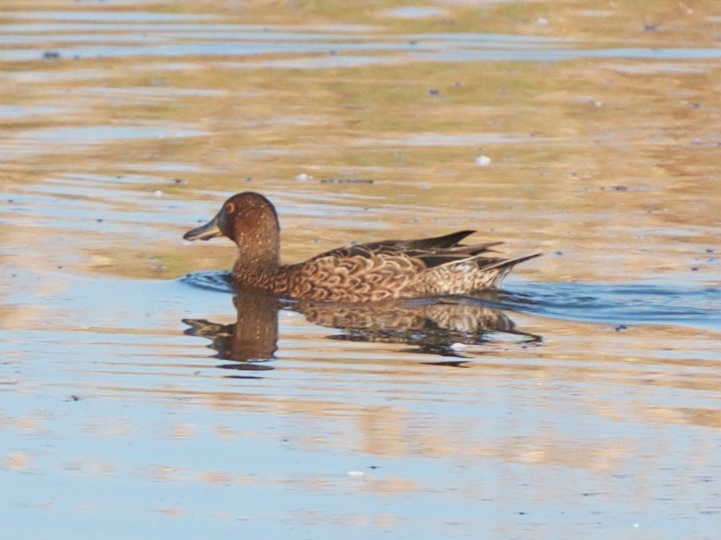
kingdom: Animalia
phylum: Chordata
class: Aves
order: Anseriformes
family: Anatidae
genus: Spatula
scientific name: Spatula cyanoptera
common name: Cinnamon teal
